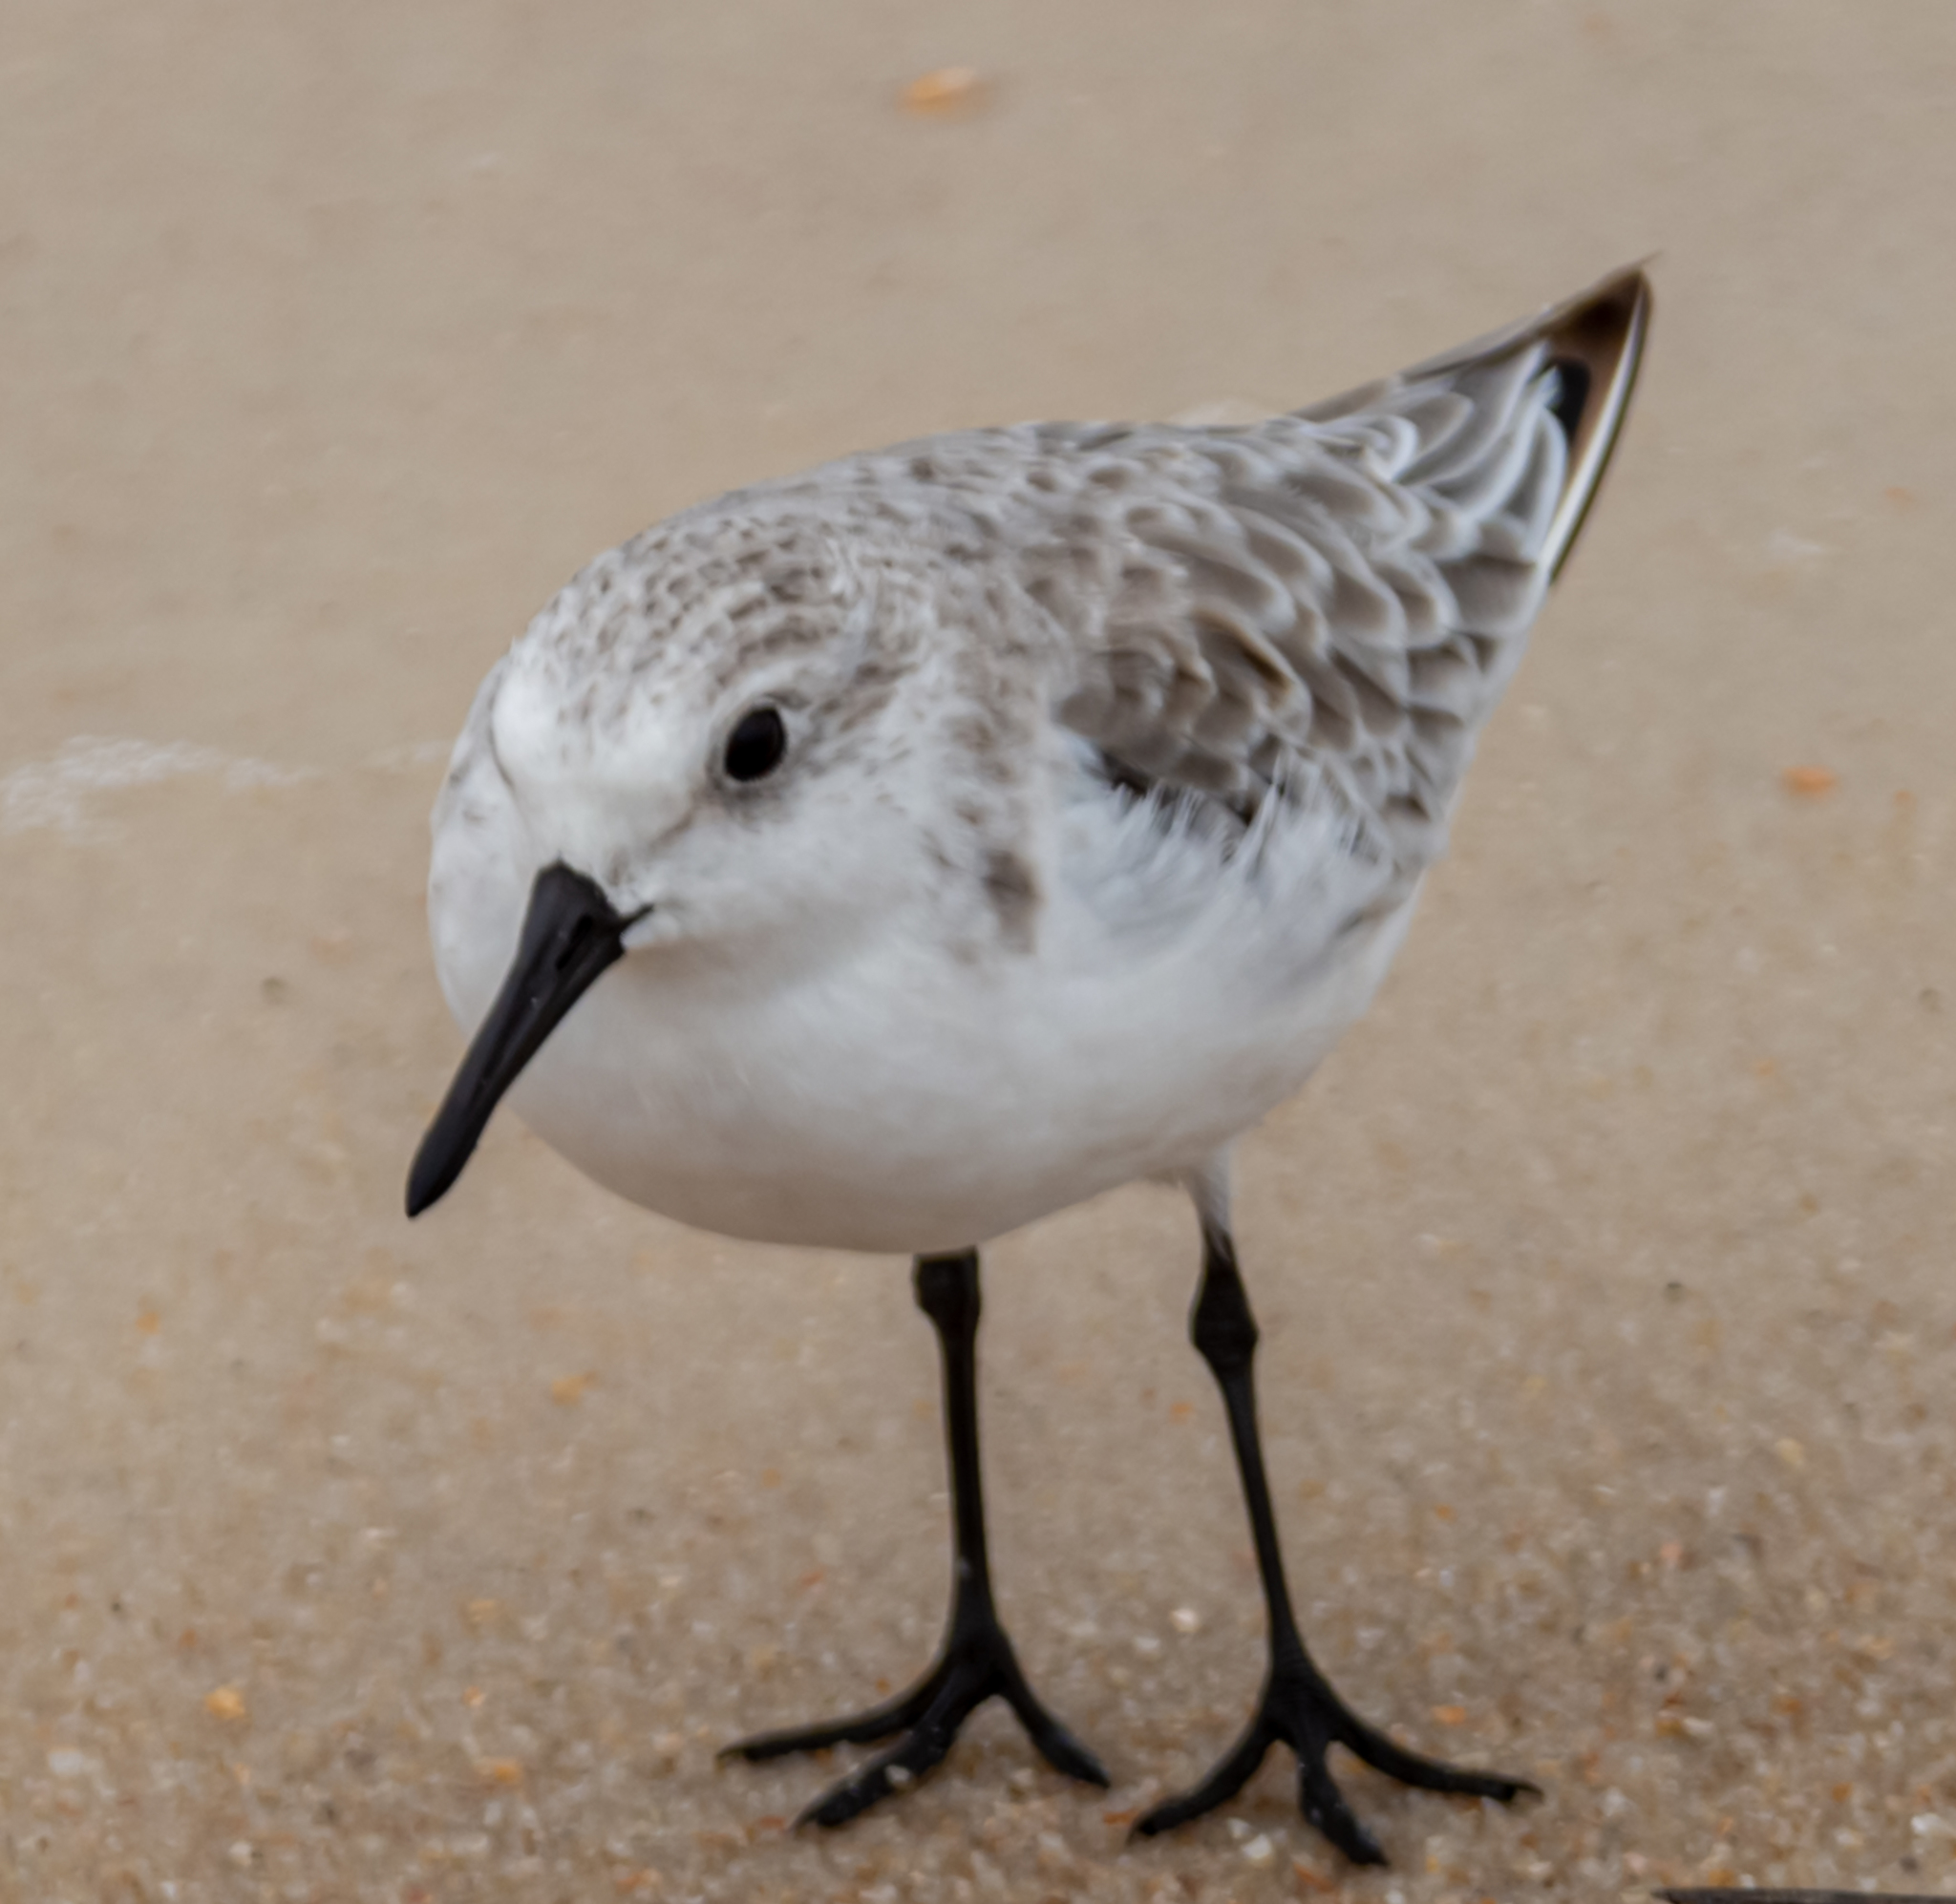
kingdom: Animalia
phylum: Chordata
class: Aves
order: Charadriiformes
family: Scolopacidae
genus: Calidris
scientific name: Calidris alba
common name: Sanderling
